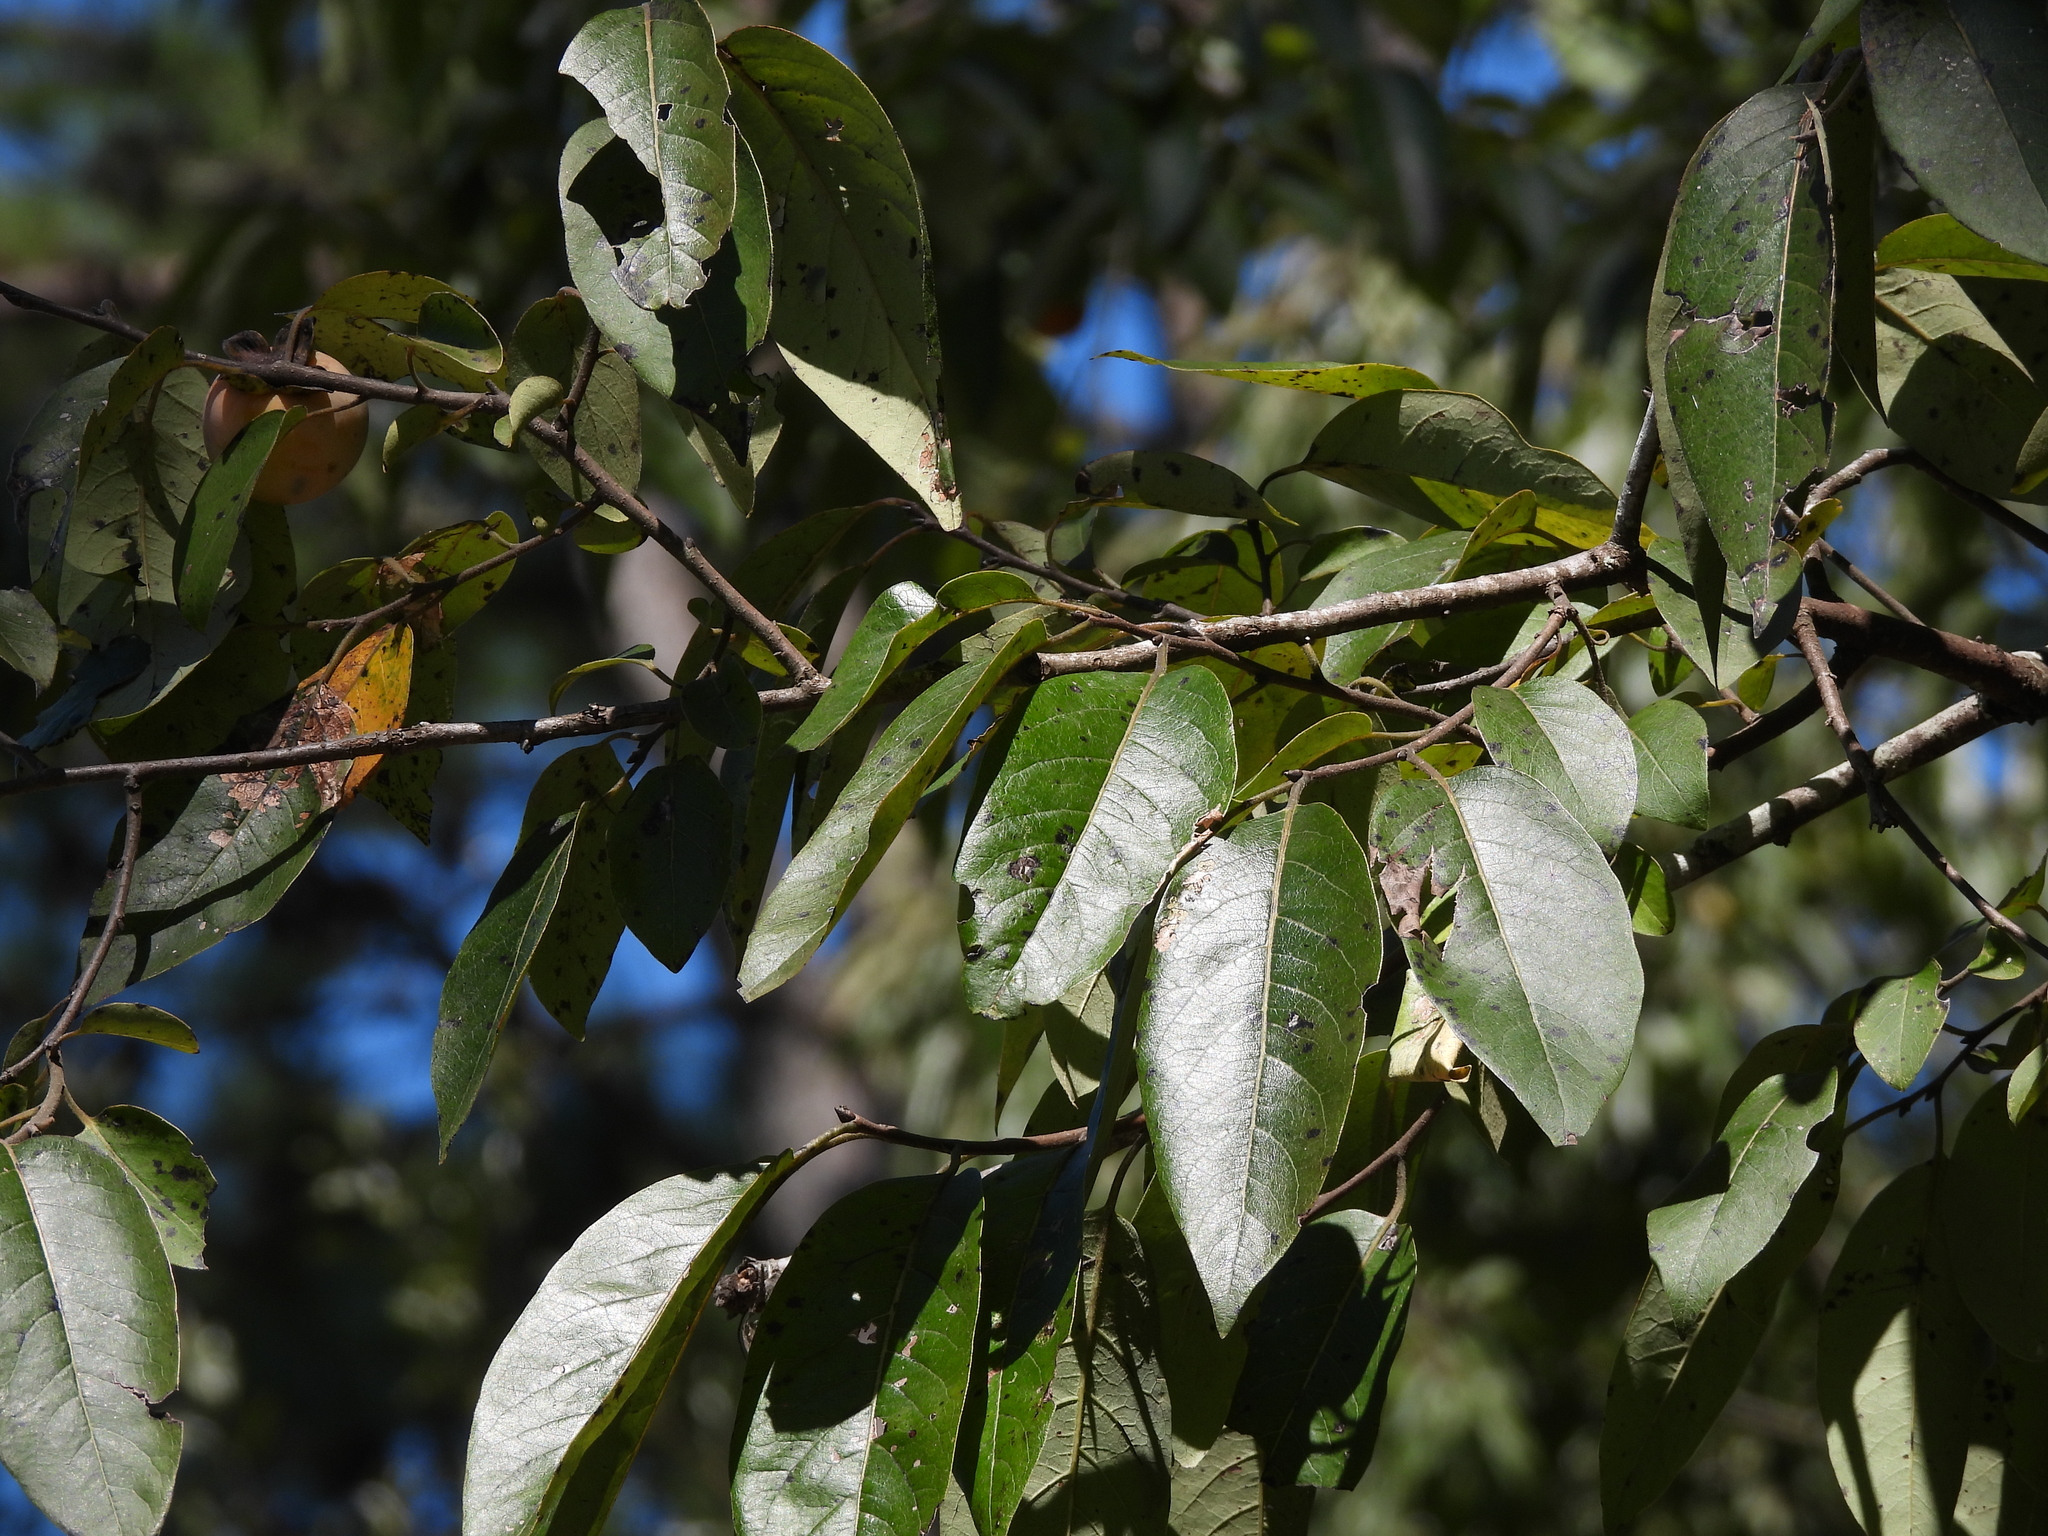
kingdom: Plantae
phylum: Tracheophyta
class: Magnoliopsida
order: Ericales
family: Ebenaceae
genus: Diospyros
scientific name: Diospyros virginiana
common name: Persimmon
